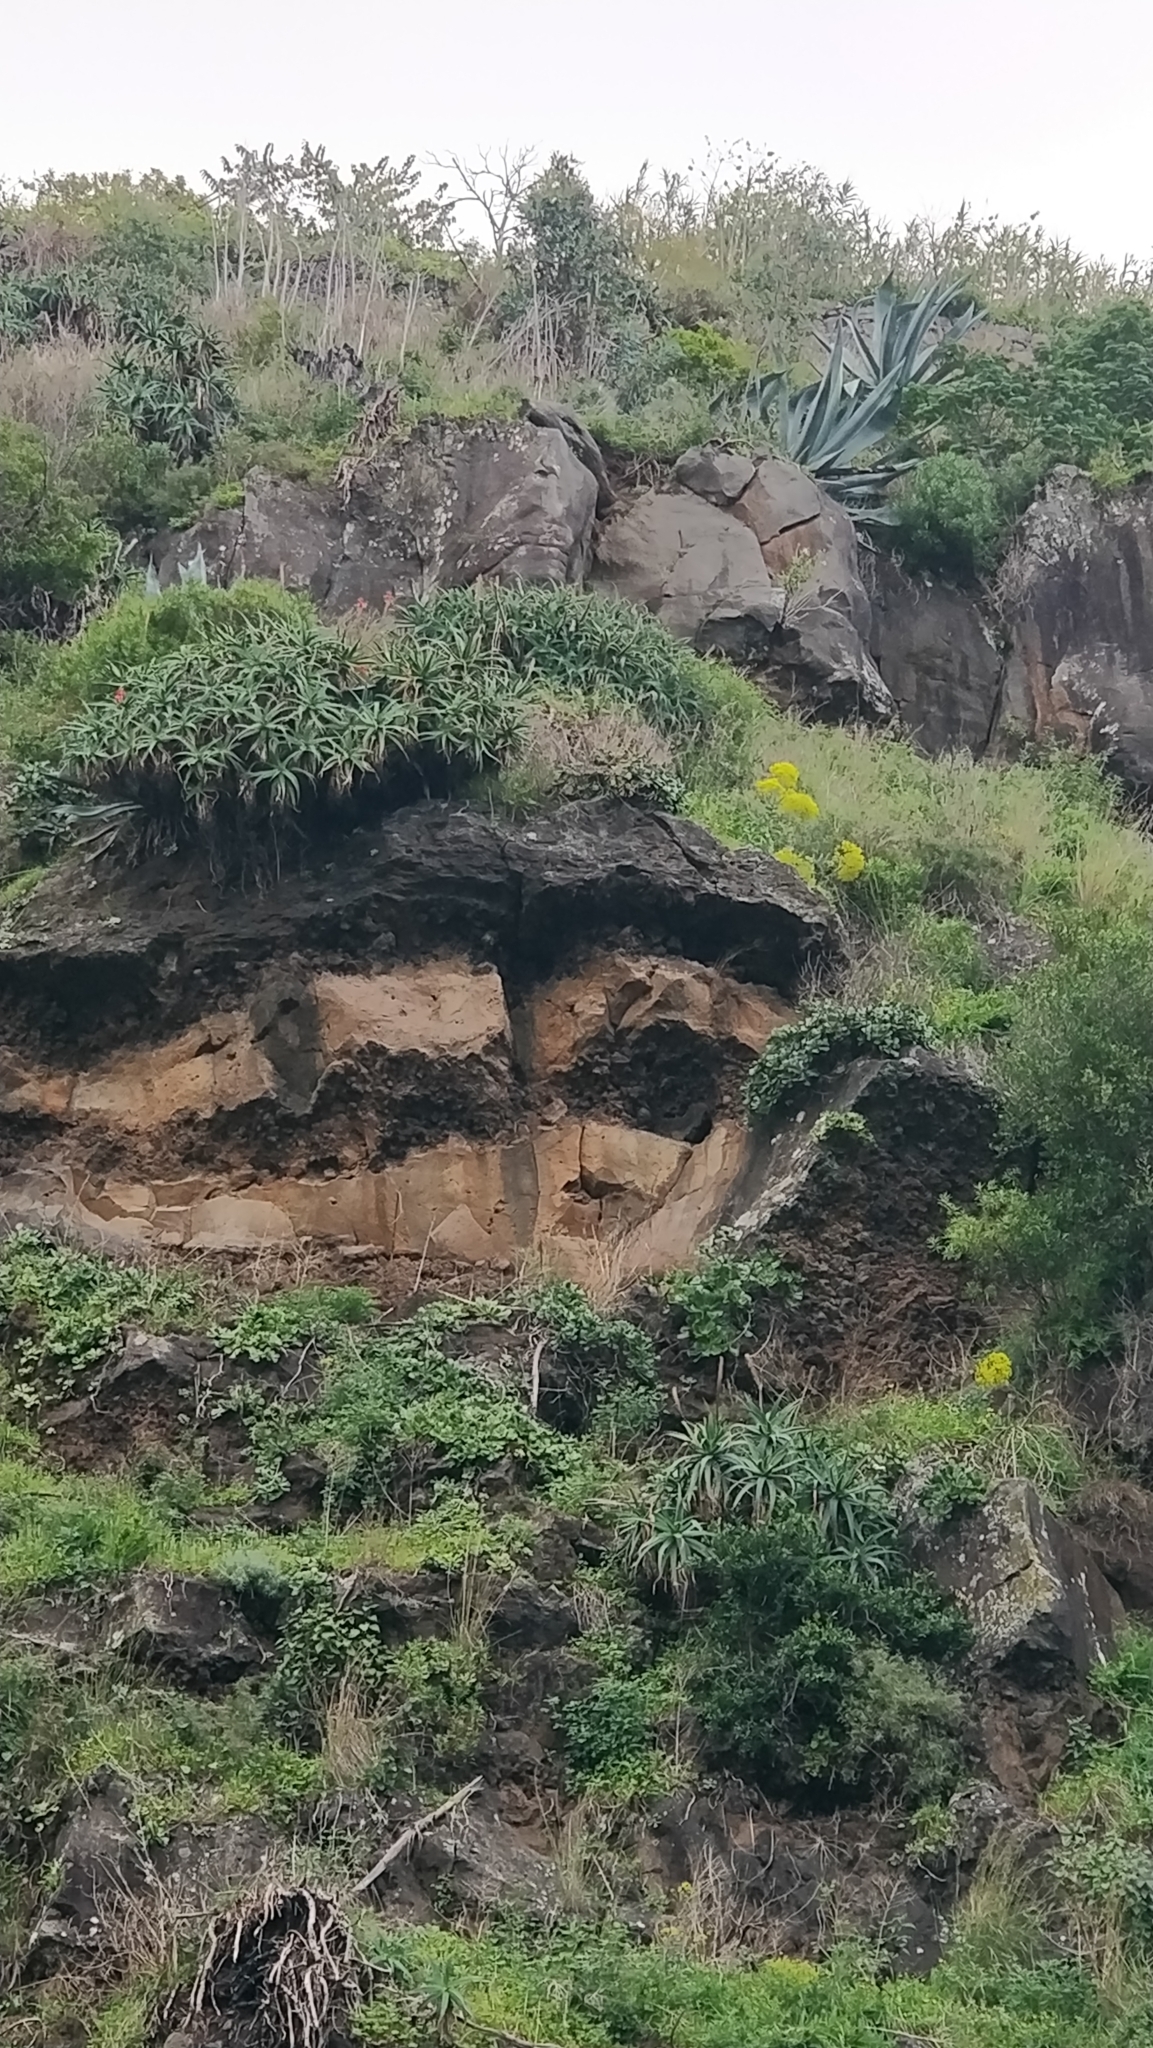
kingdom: Plantae
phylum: Tracheophyta
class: Liliopsida
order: Asparagales
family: Asphodelaceae
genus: Aloe
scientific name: Aloe arborescens
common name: Candelabra aloe
